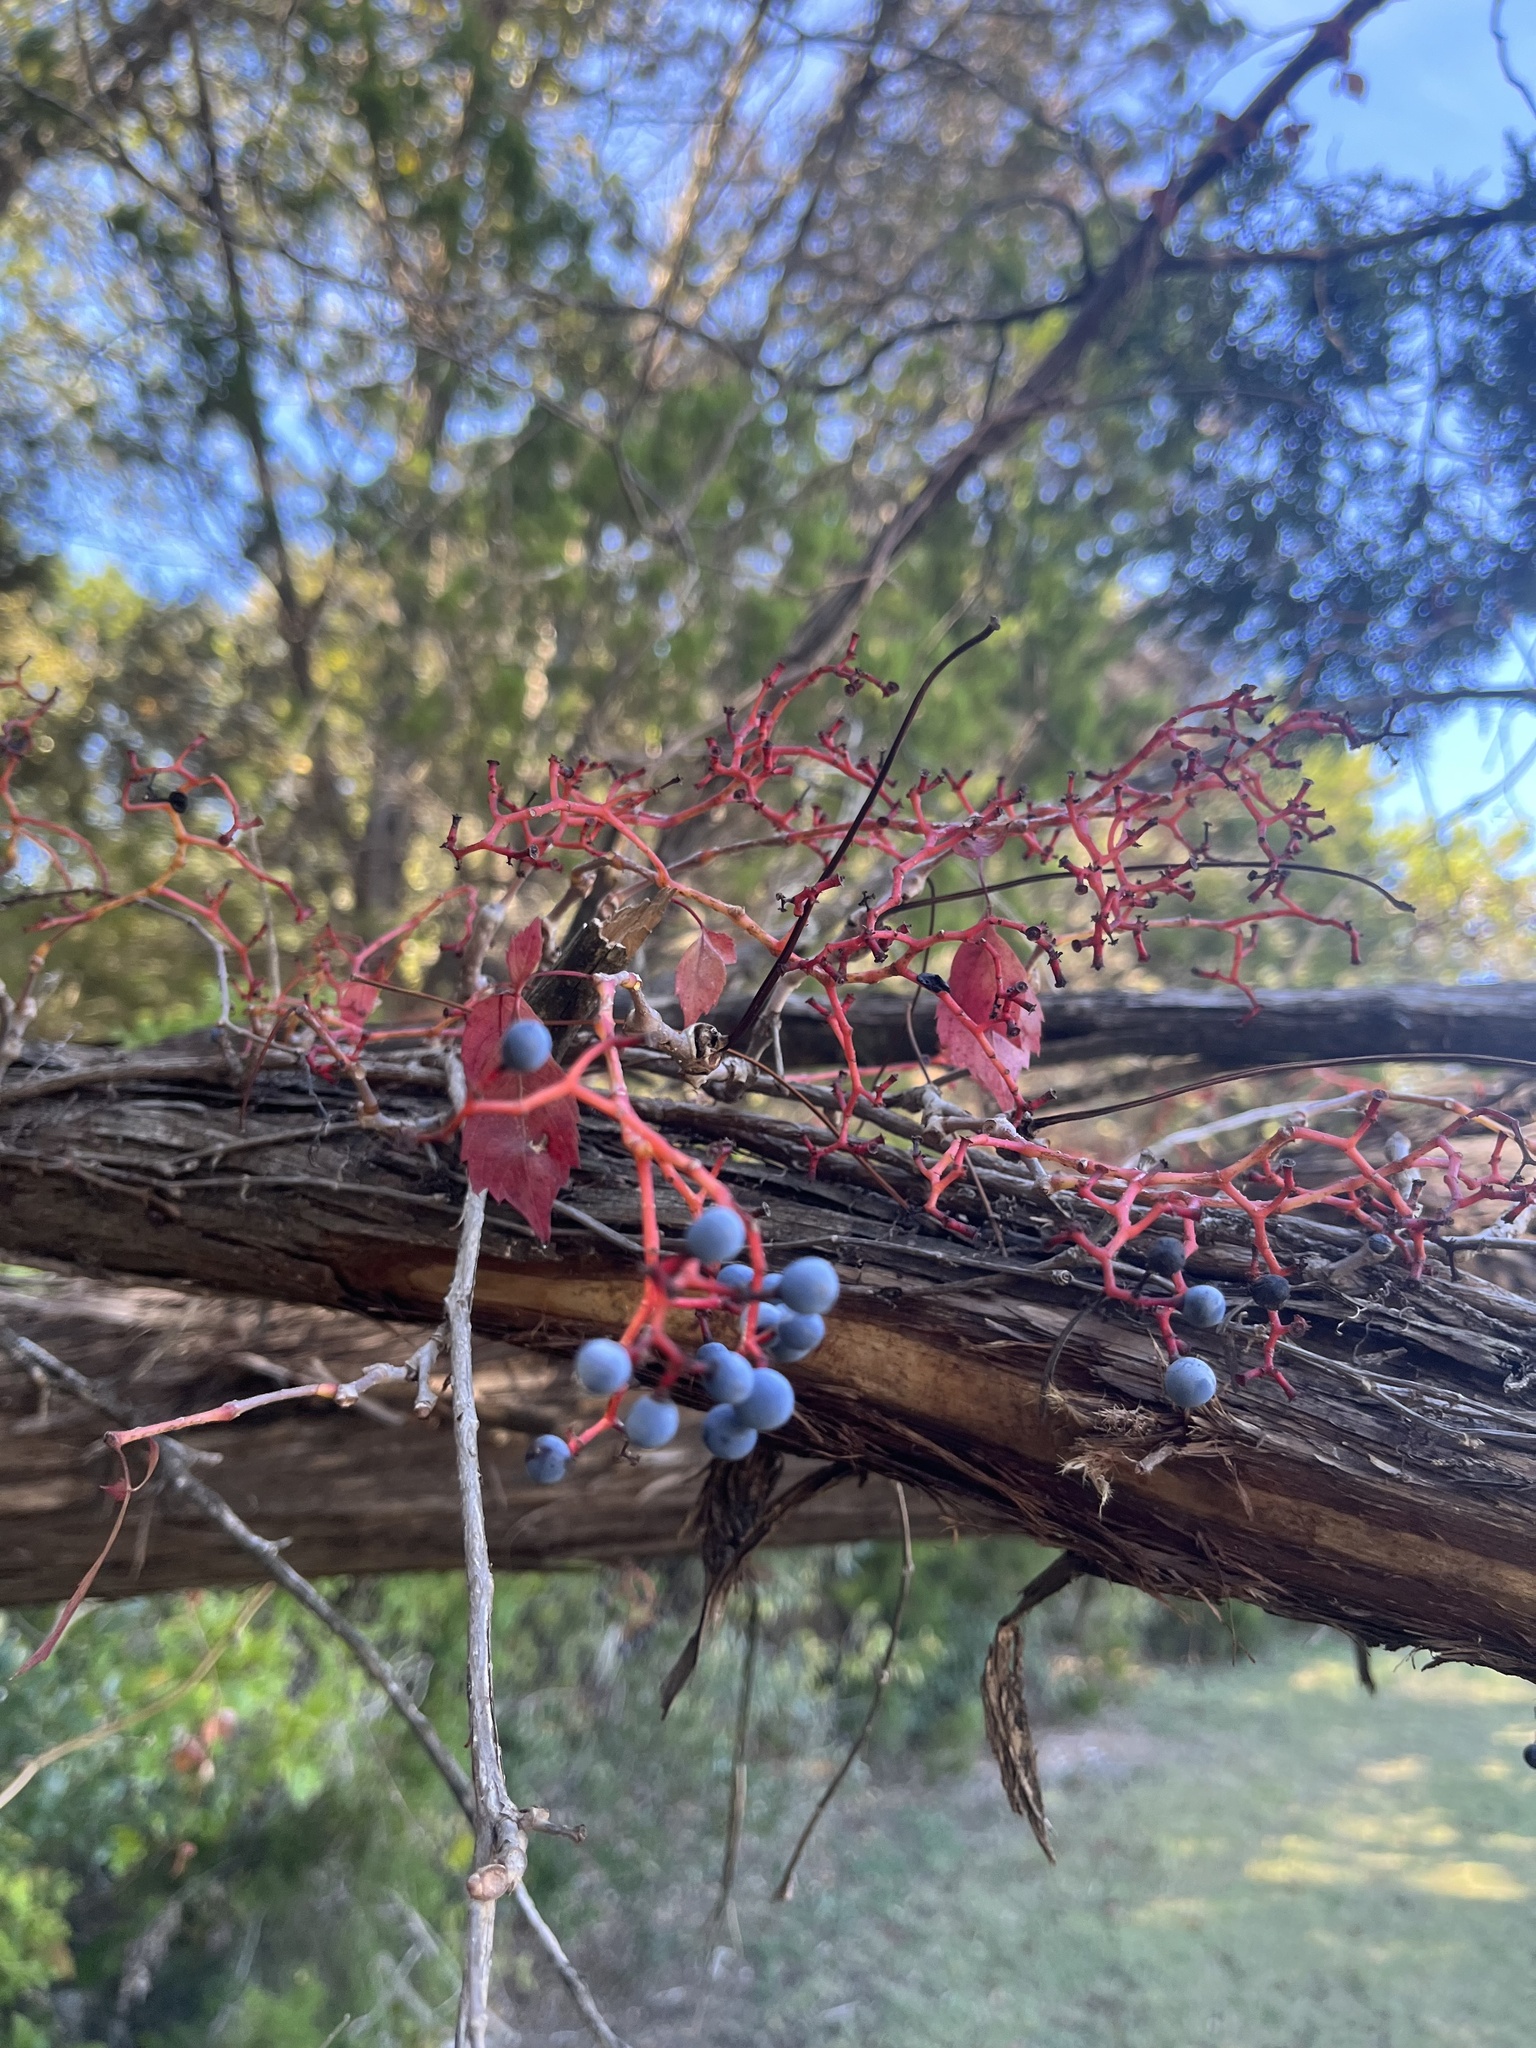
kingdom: Plantae
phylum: Tracheophyta
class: Magnoliopsida
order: Vitales
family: Vitaceae
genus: Parthenocissus
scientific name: Parthenocissus quinquefolia
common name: Virginia-creeper
